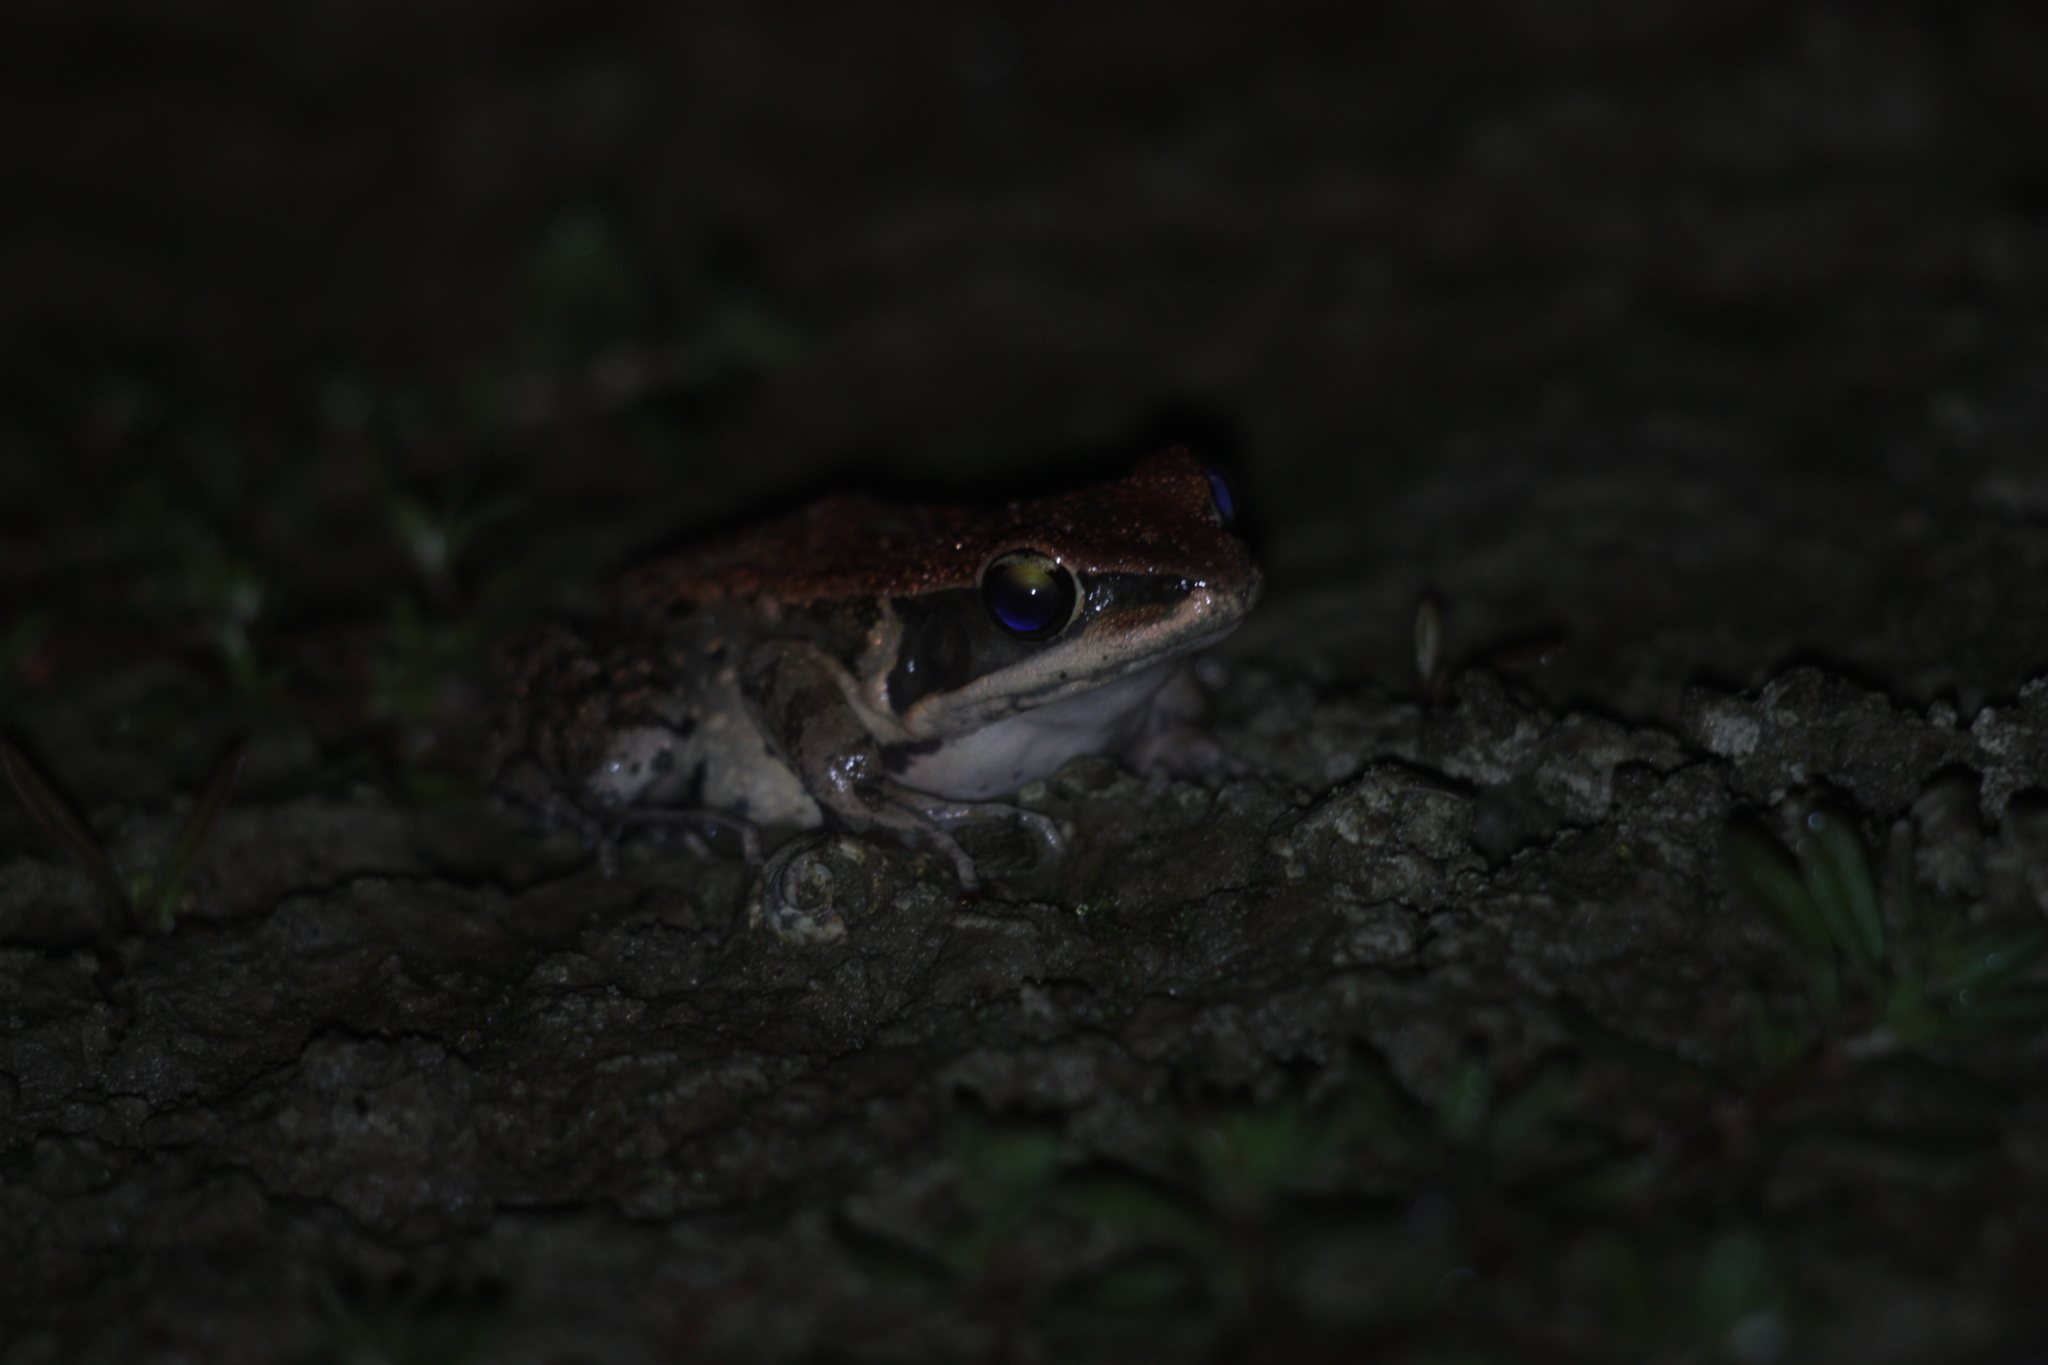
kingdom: Animalia
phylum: Chordata
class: Amphibia
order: Anura
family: Ranidae
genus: Hylarana
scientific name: Hylarana latouchii
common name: Broad-folded frog
